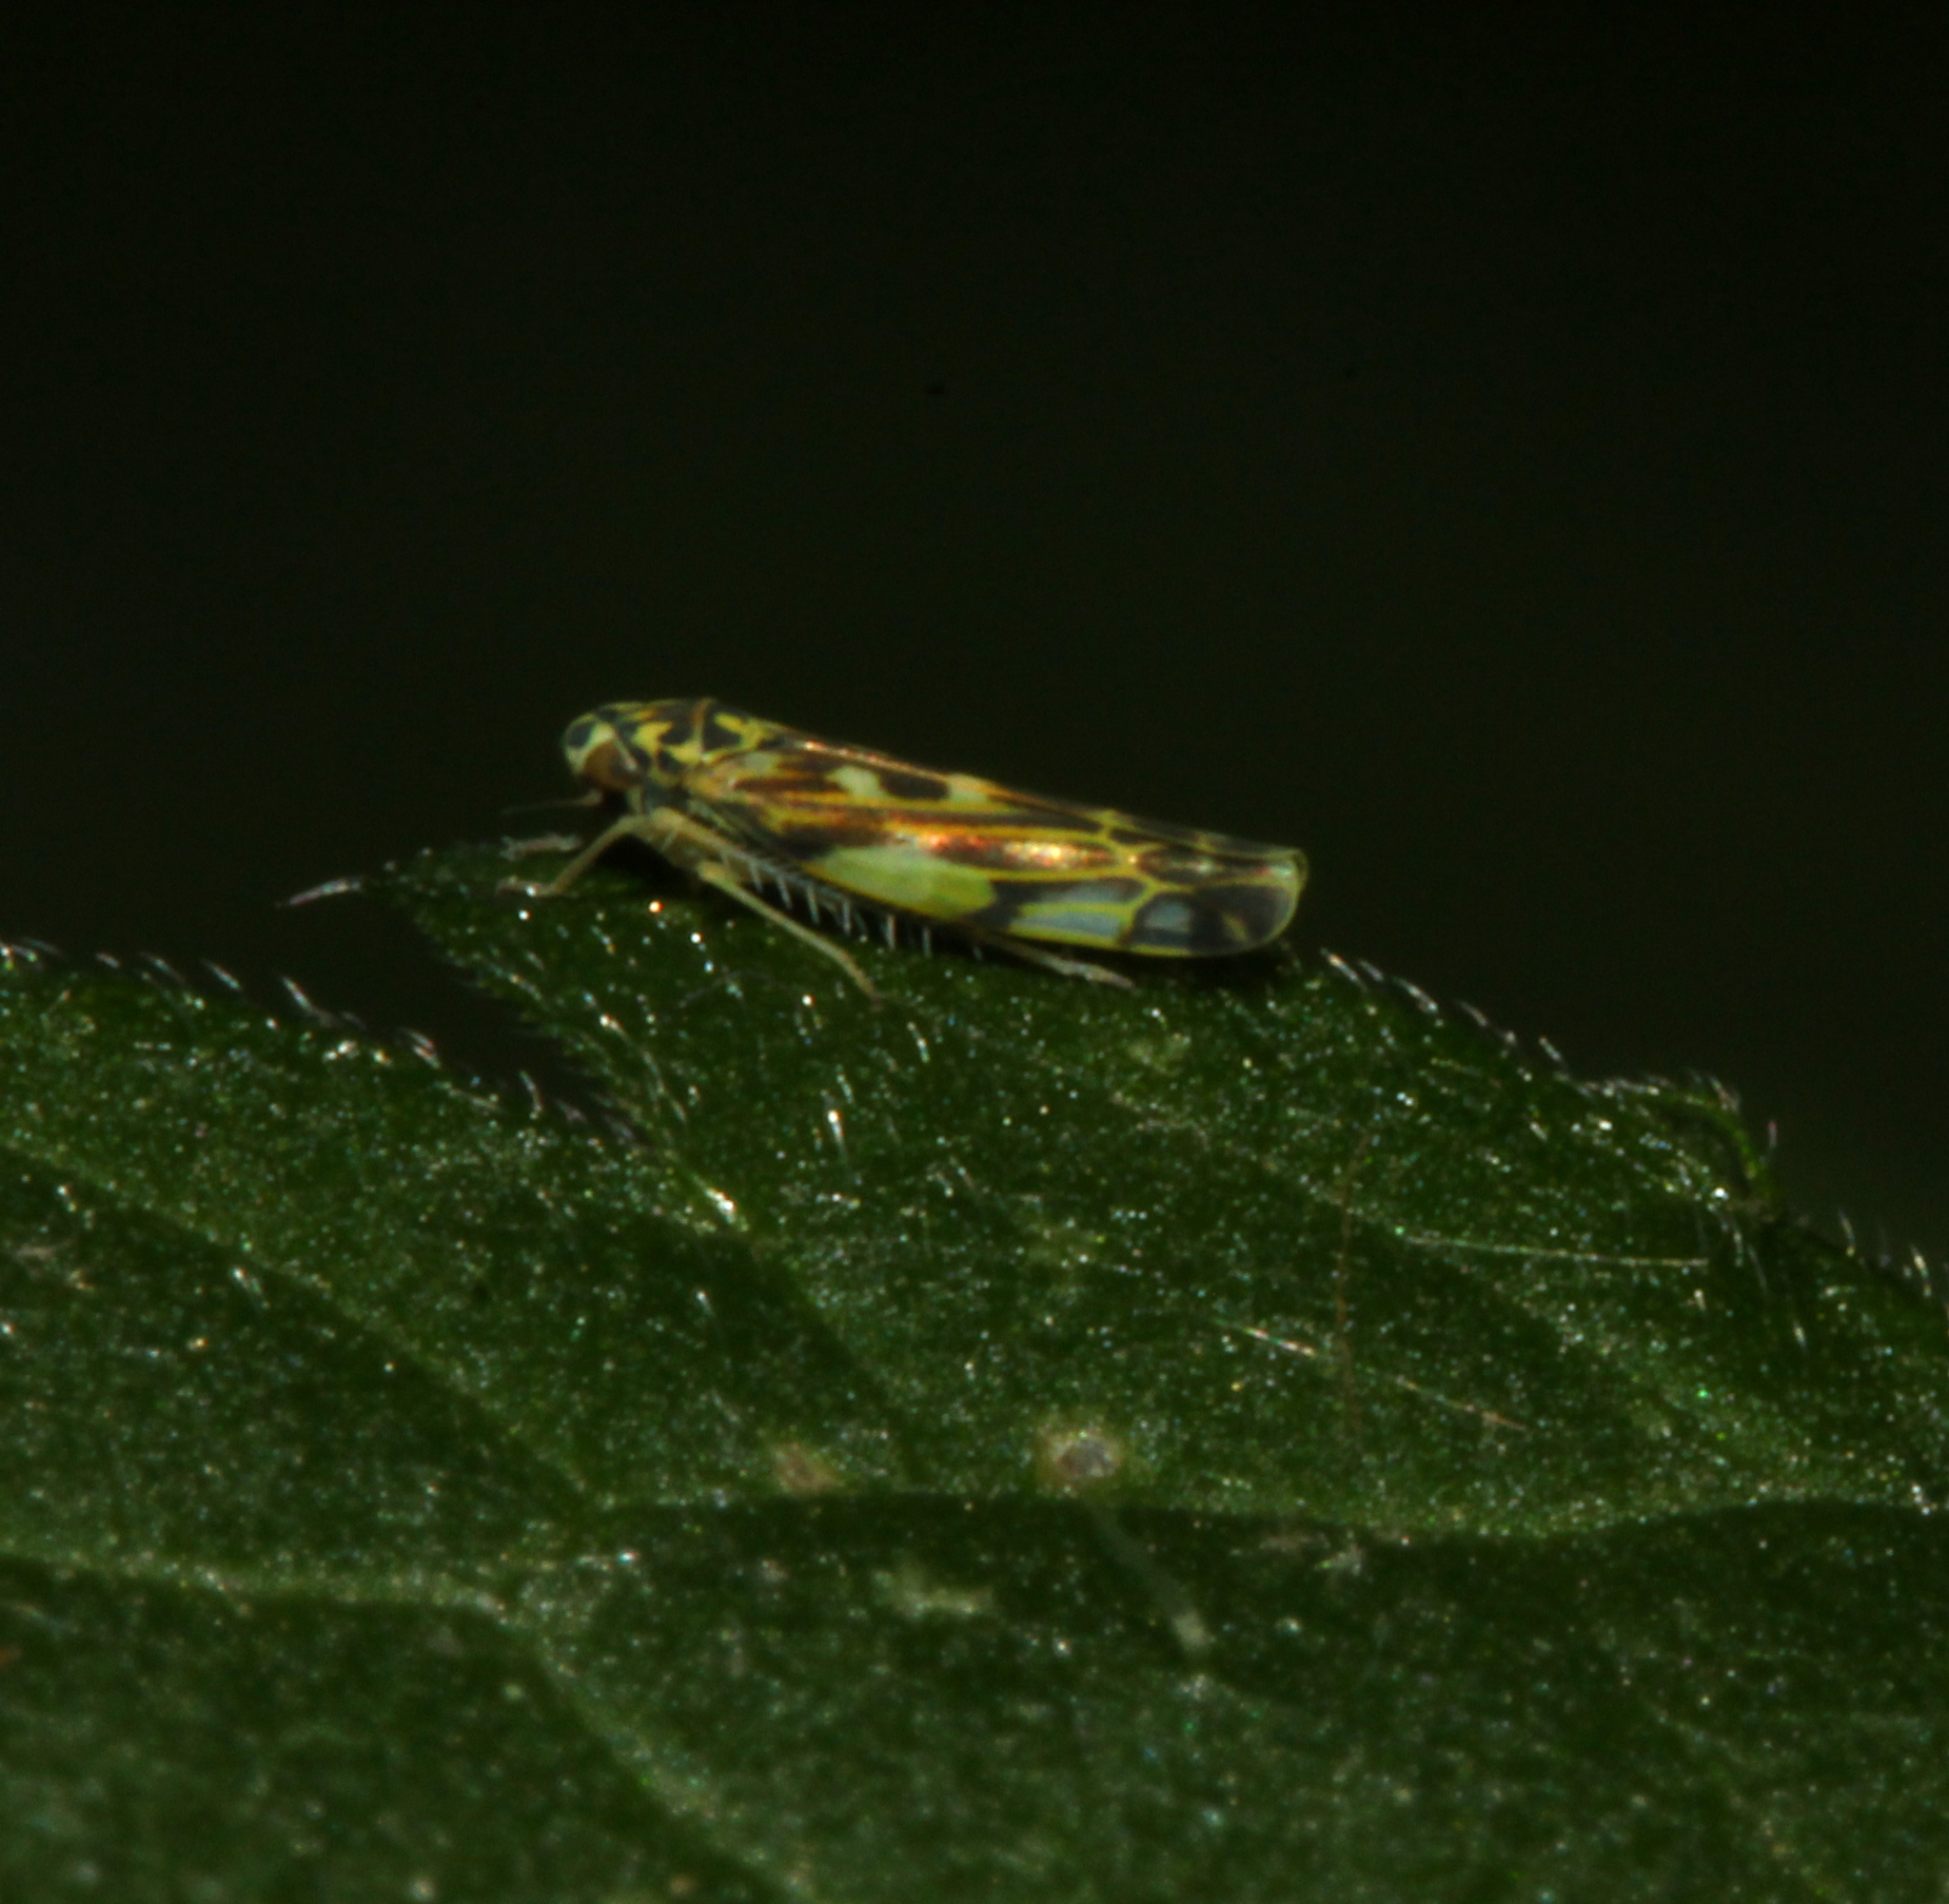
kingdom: Animalia
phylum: Arthropoda
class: Insecta
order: Hemiptera
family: Cicadellidae
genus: Eupteryx
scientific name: Eupteryx
